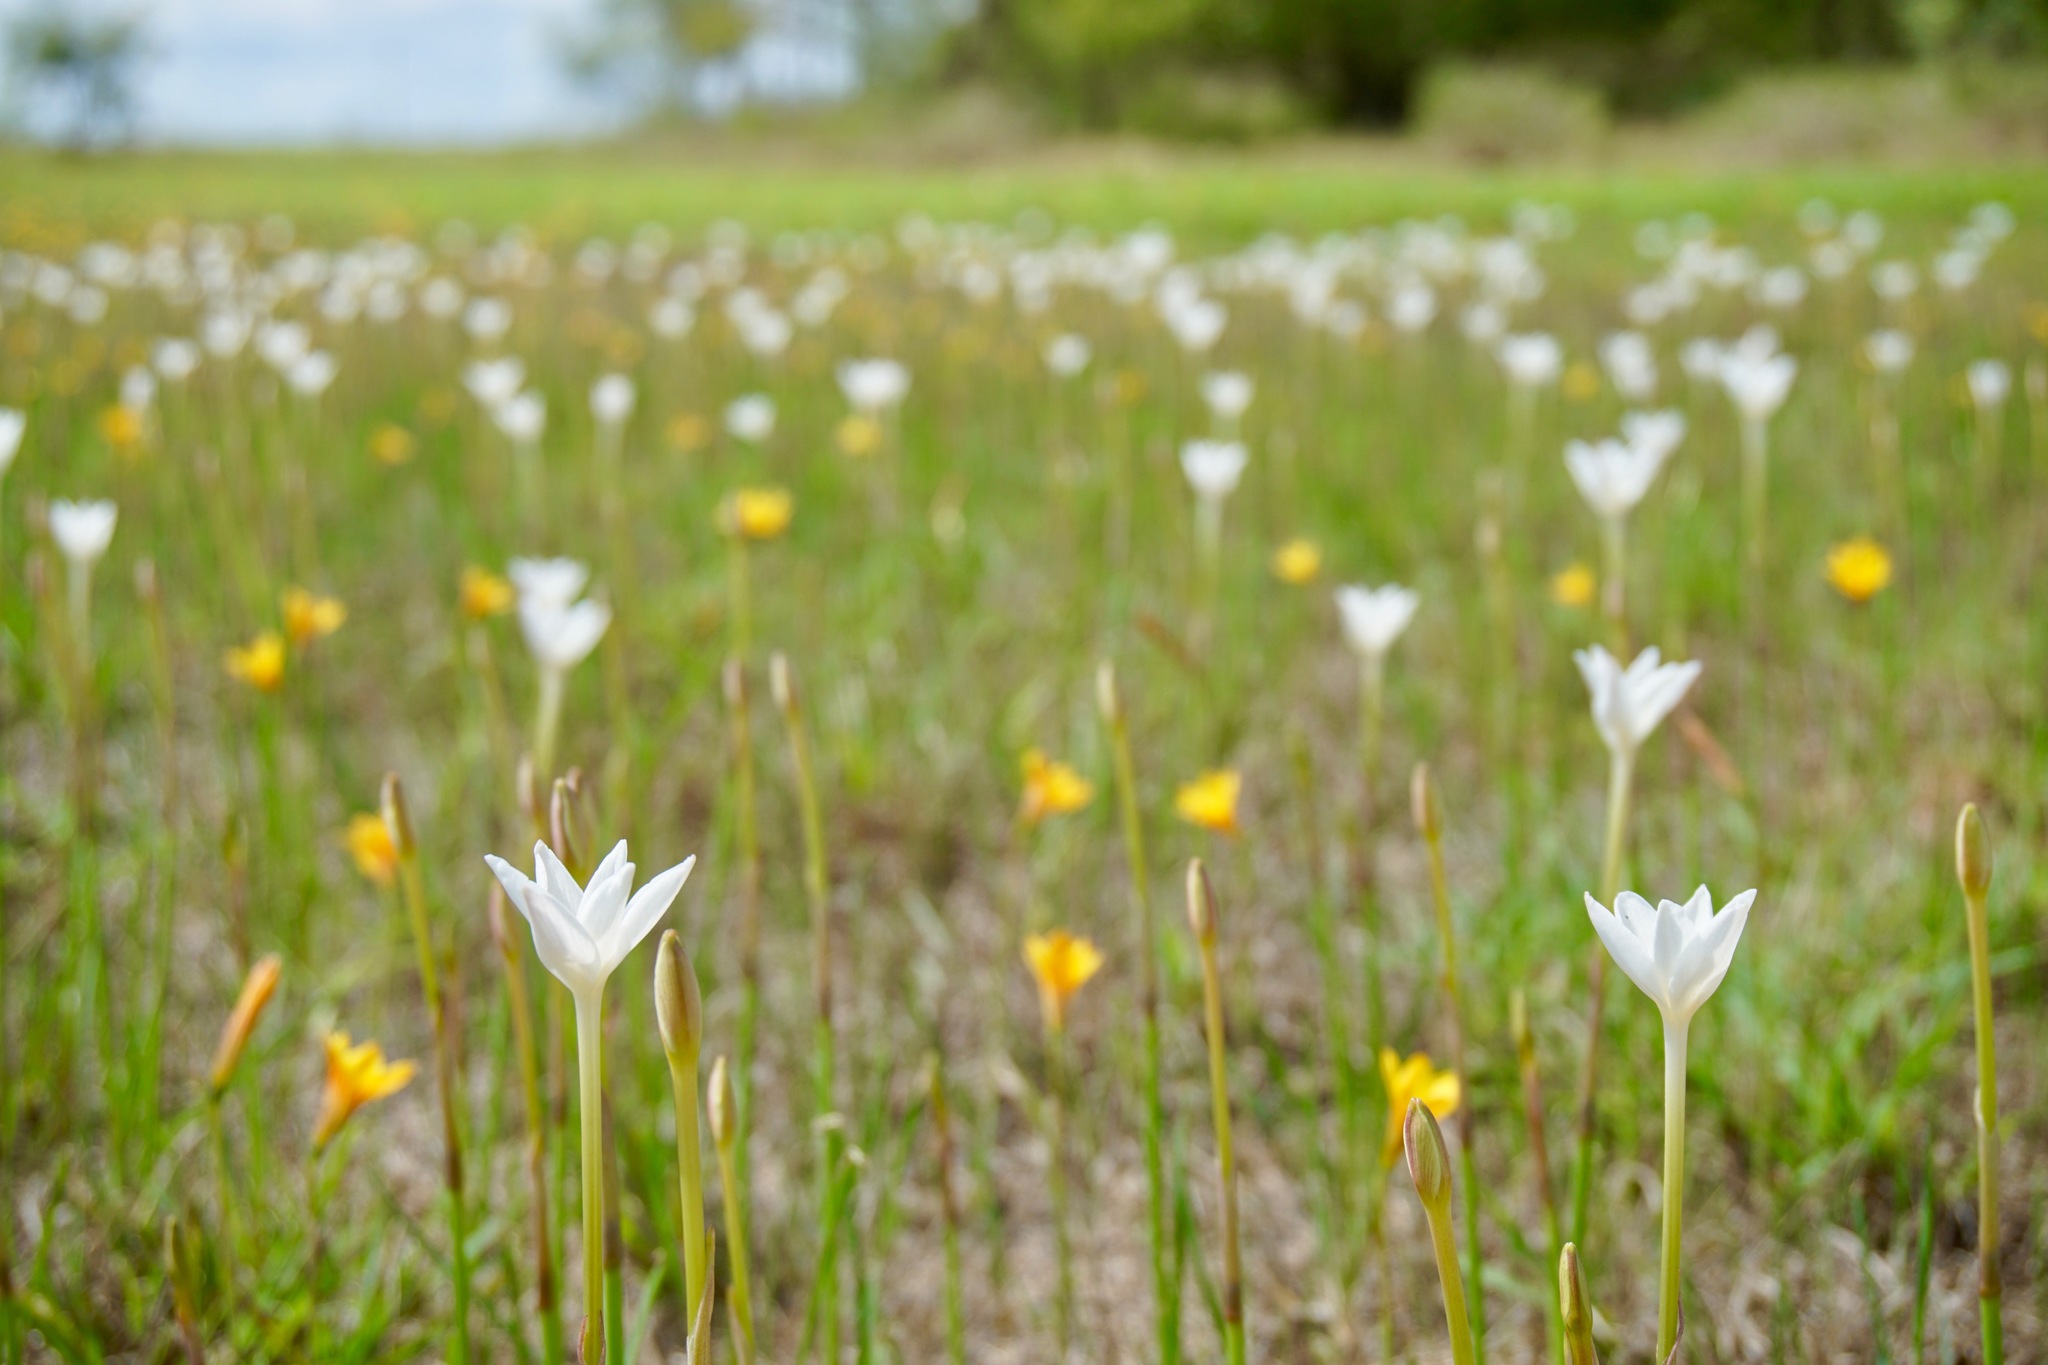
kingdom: Plantae
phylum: Tracheophyta
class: Liliopsida
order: Asparagales
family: Amaryllidaceae
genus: Zephyranthes
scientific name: Zephyranthes chlorosolen
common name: Evening rain-lily
